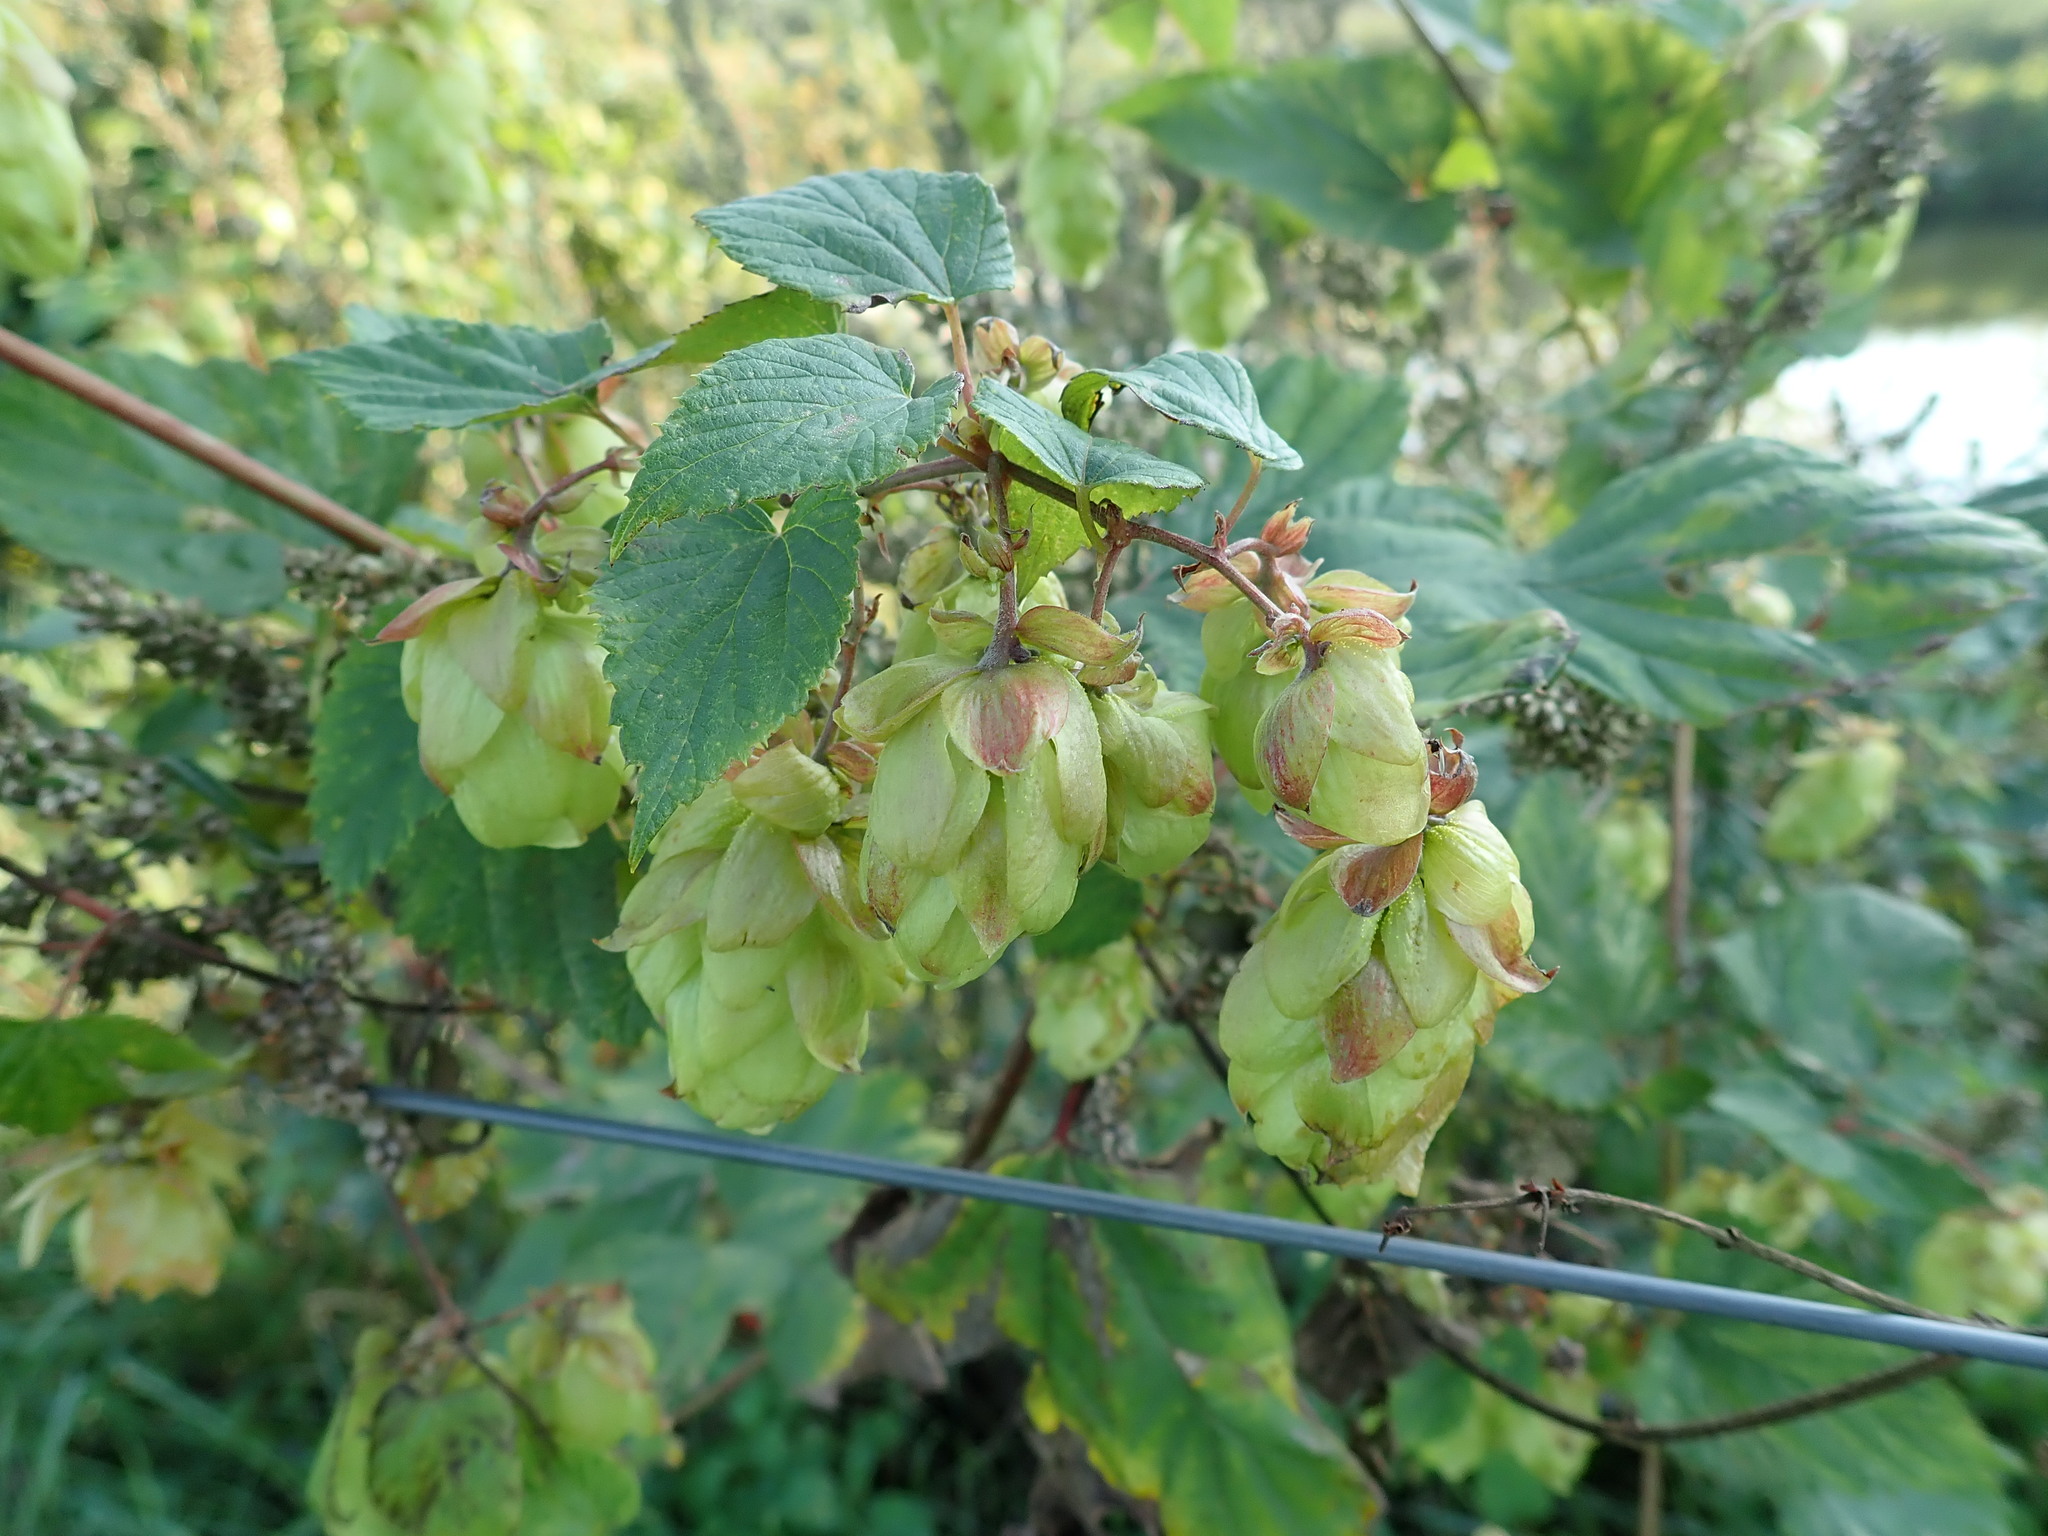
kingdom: Plantae
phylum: Tracheophyta
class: Magnoliopsida
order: Rosales
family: Cannabaceae
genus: Humulus
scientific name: Humulus lupulus
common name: Hop
